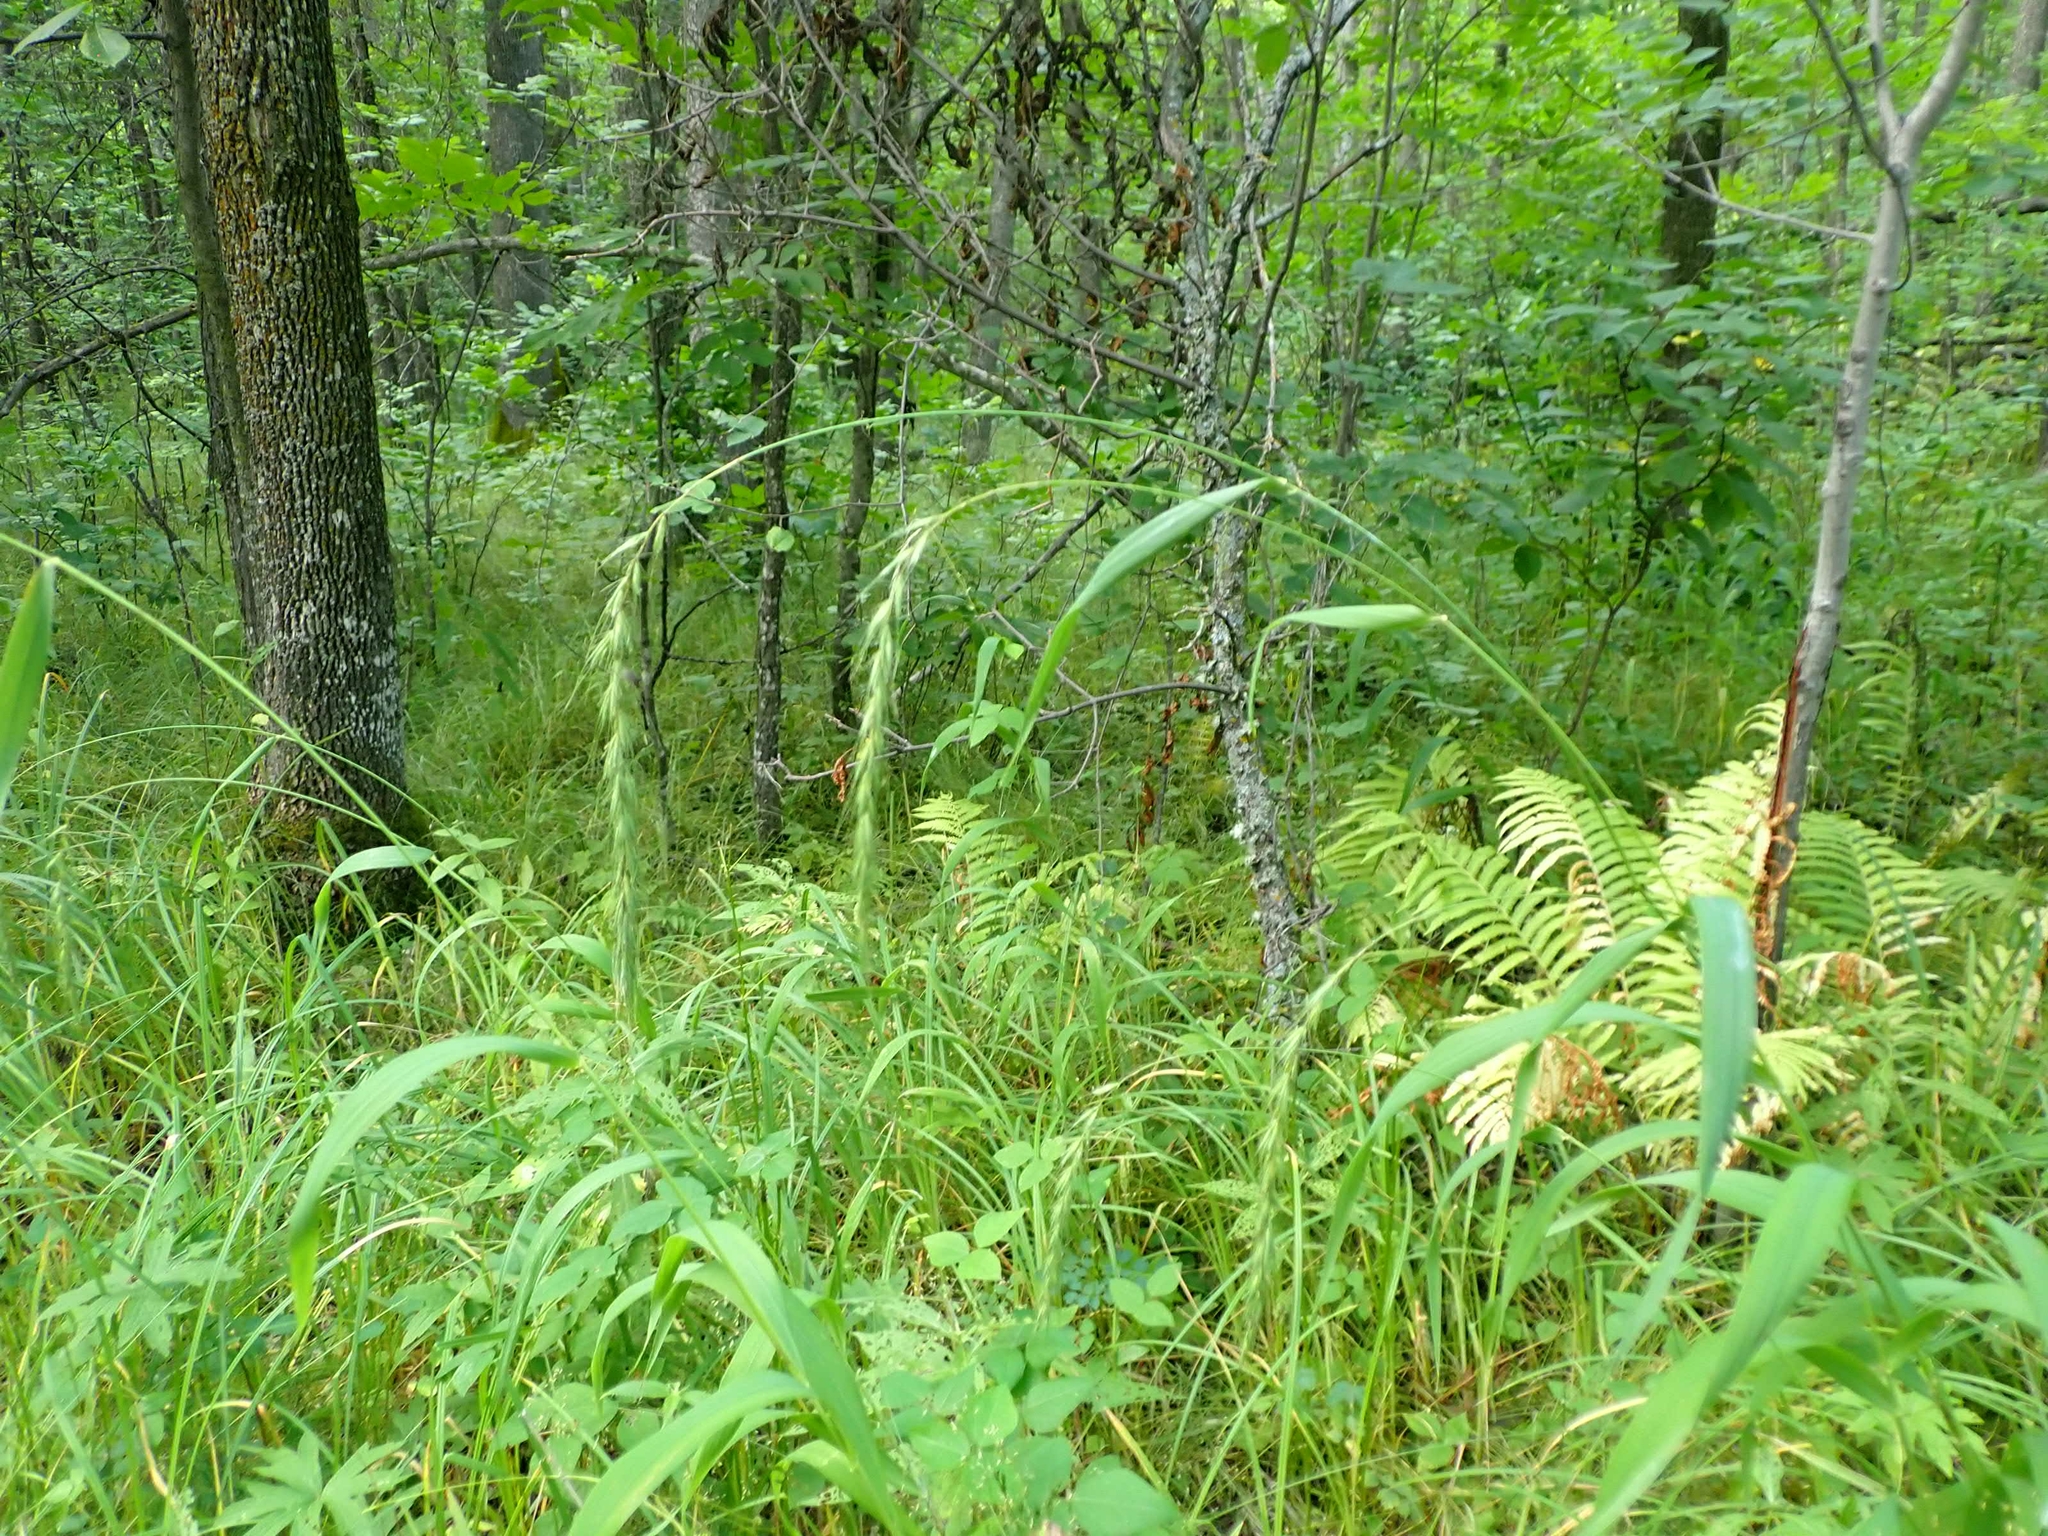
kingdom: Plantae
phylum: Tracheophyta
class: Liliopsida
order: Poales
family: Poaceae
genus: Elymus
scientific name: Elymus canadensis
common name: Canada wild rye
